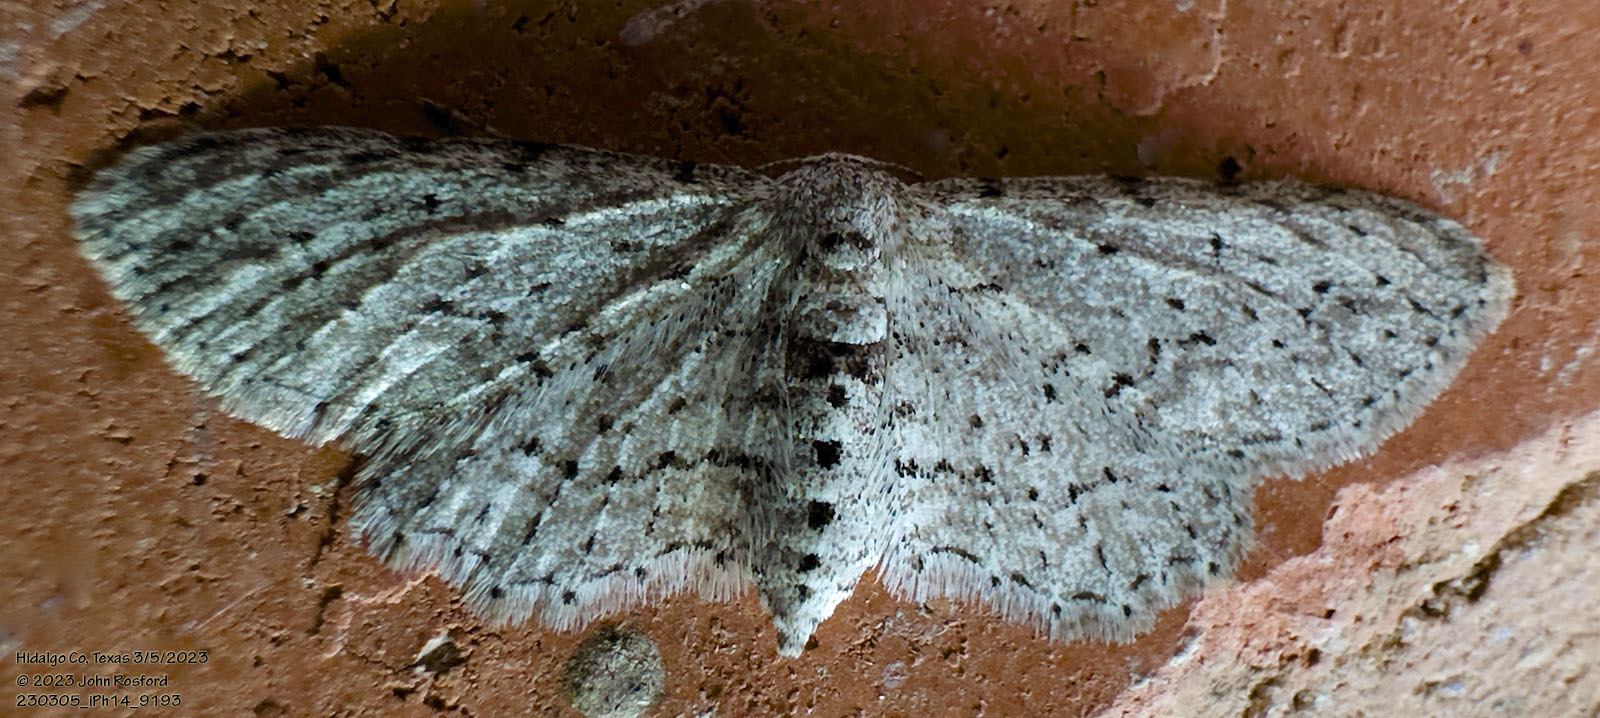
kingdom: Animalia
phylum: Arthropoda
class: Insecta
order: Lepidoptera
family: Geometridae
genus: Pimaphera
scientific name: Pimaphera sparsaria
